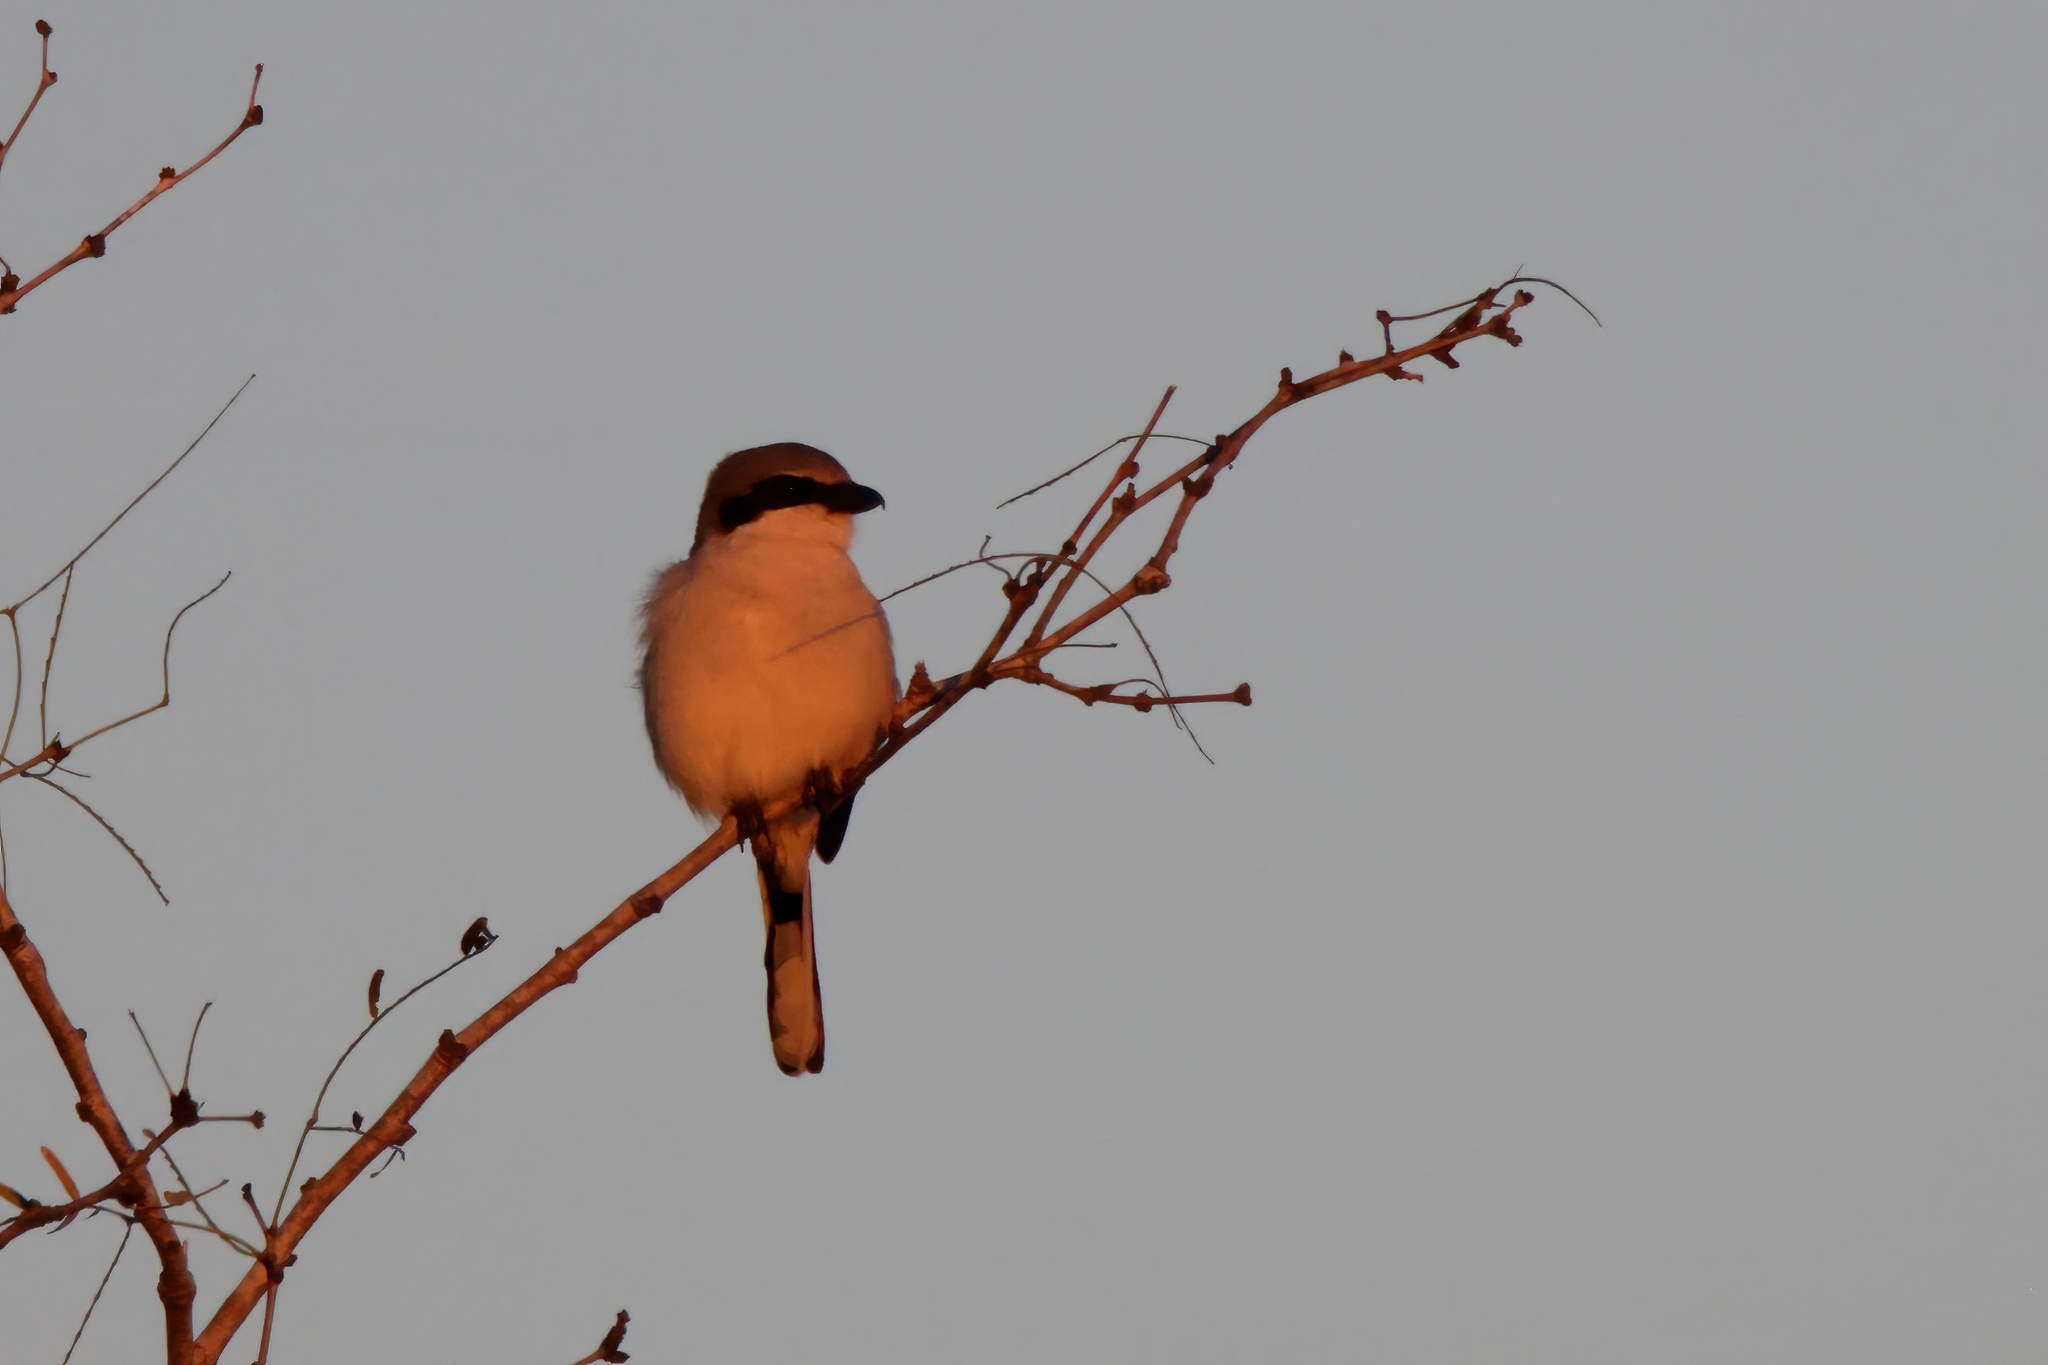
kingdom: Animalia
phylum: Chordata
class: Aves
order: Passeriformes
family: Laniidae
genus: Lanius
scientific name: Lanius ludovicianus
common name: Loggerhead shrike
